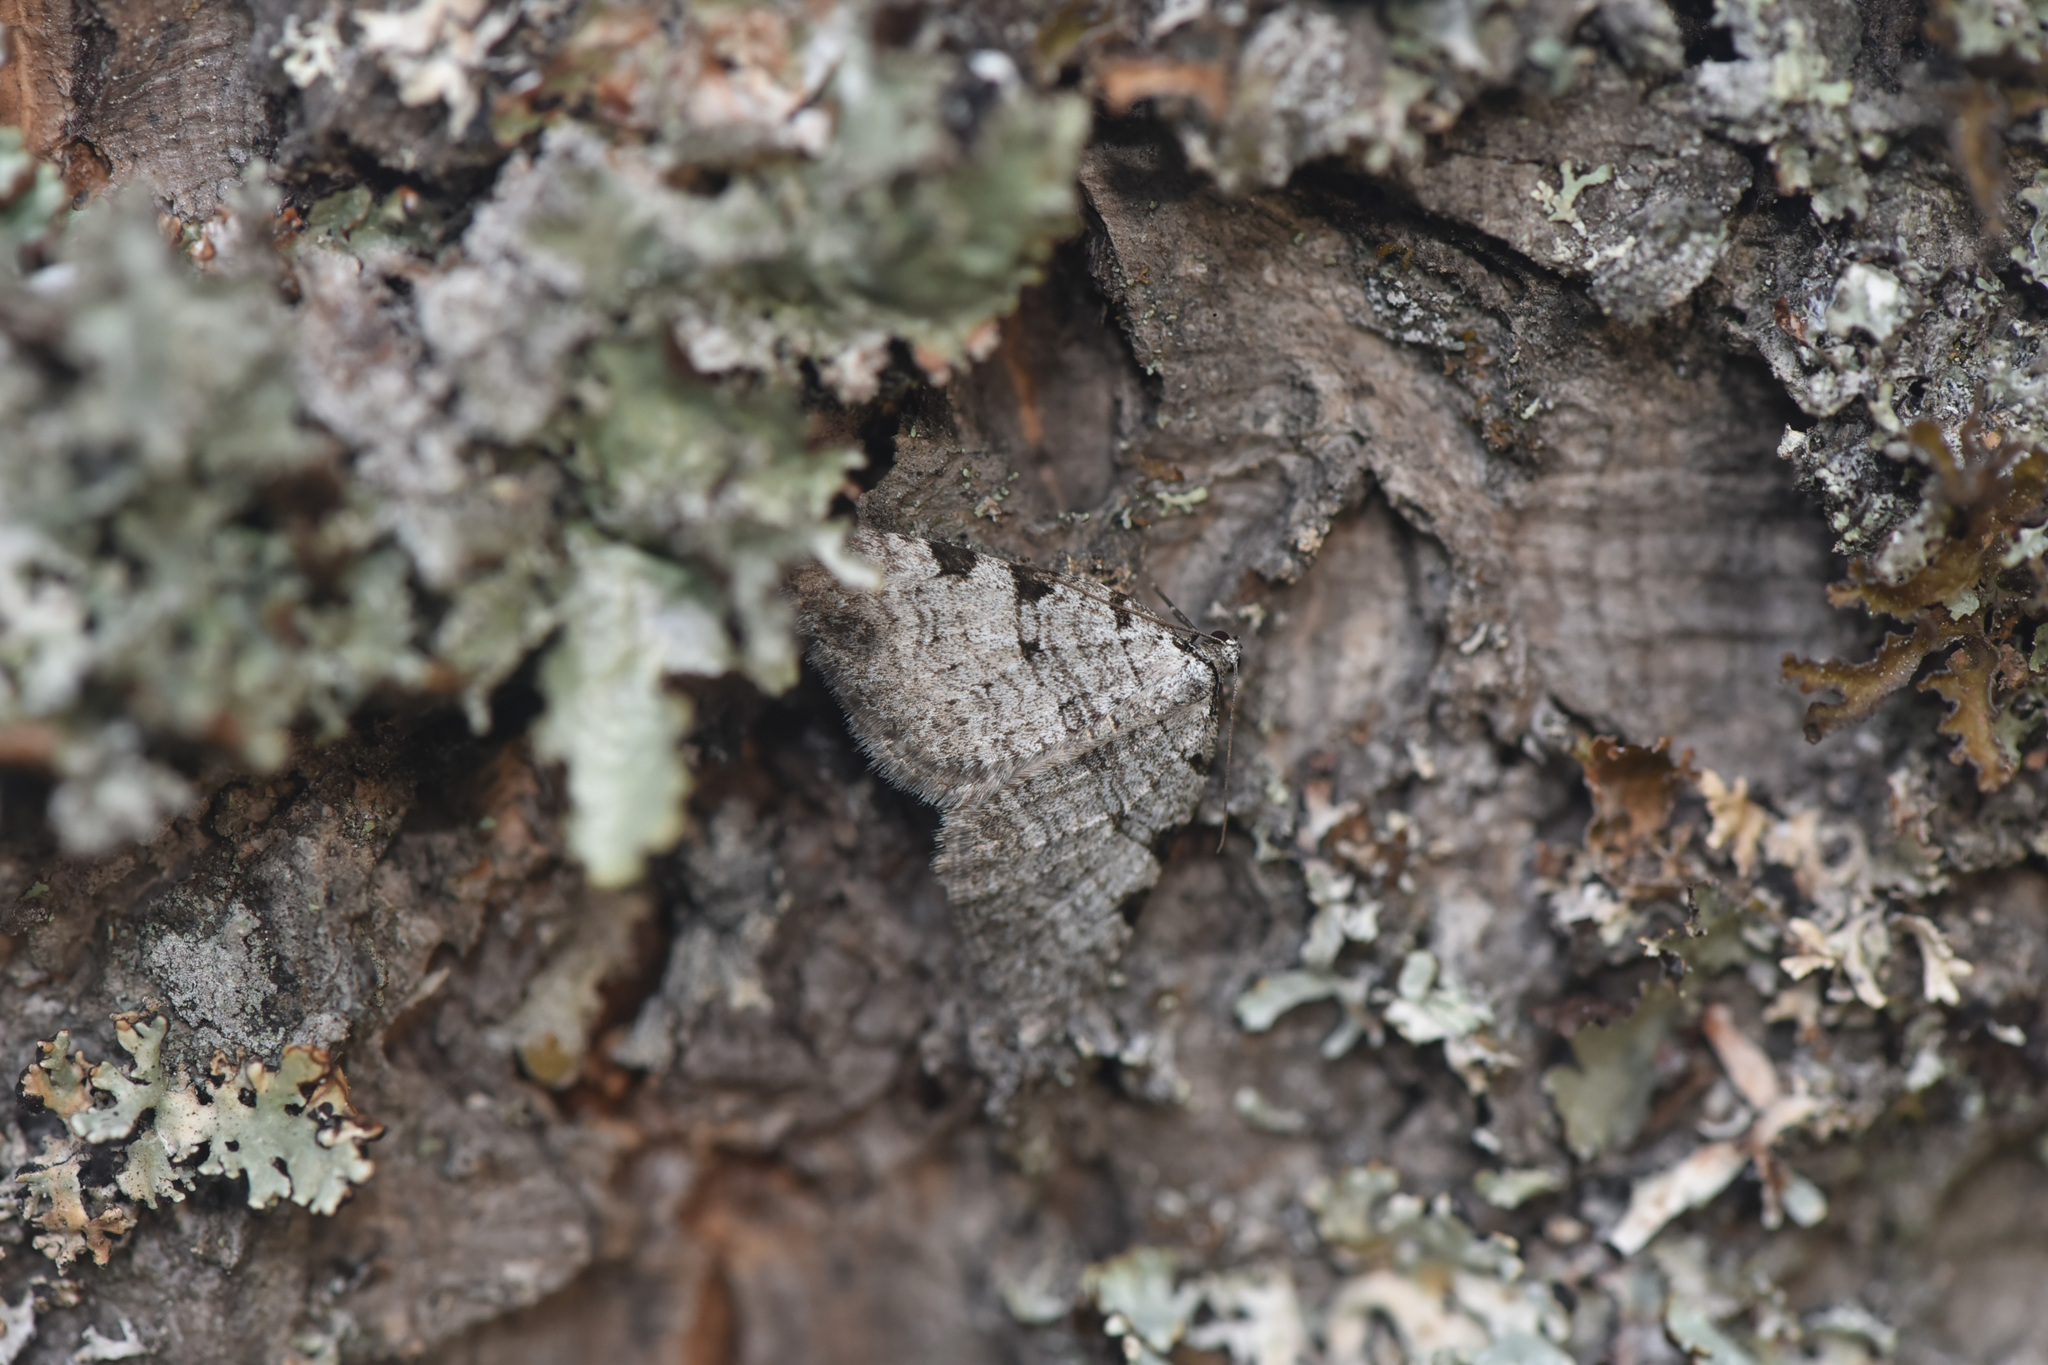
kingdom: Animalia
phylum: Arthropoda
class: Insecta
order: Lepidoptera
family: Geometridae
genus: Perizoma
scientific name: Perizoma costiguttata
